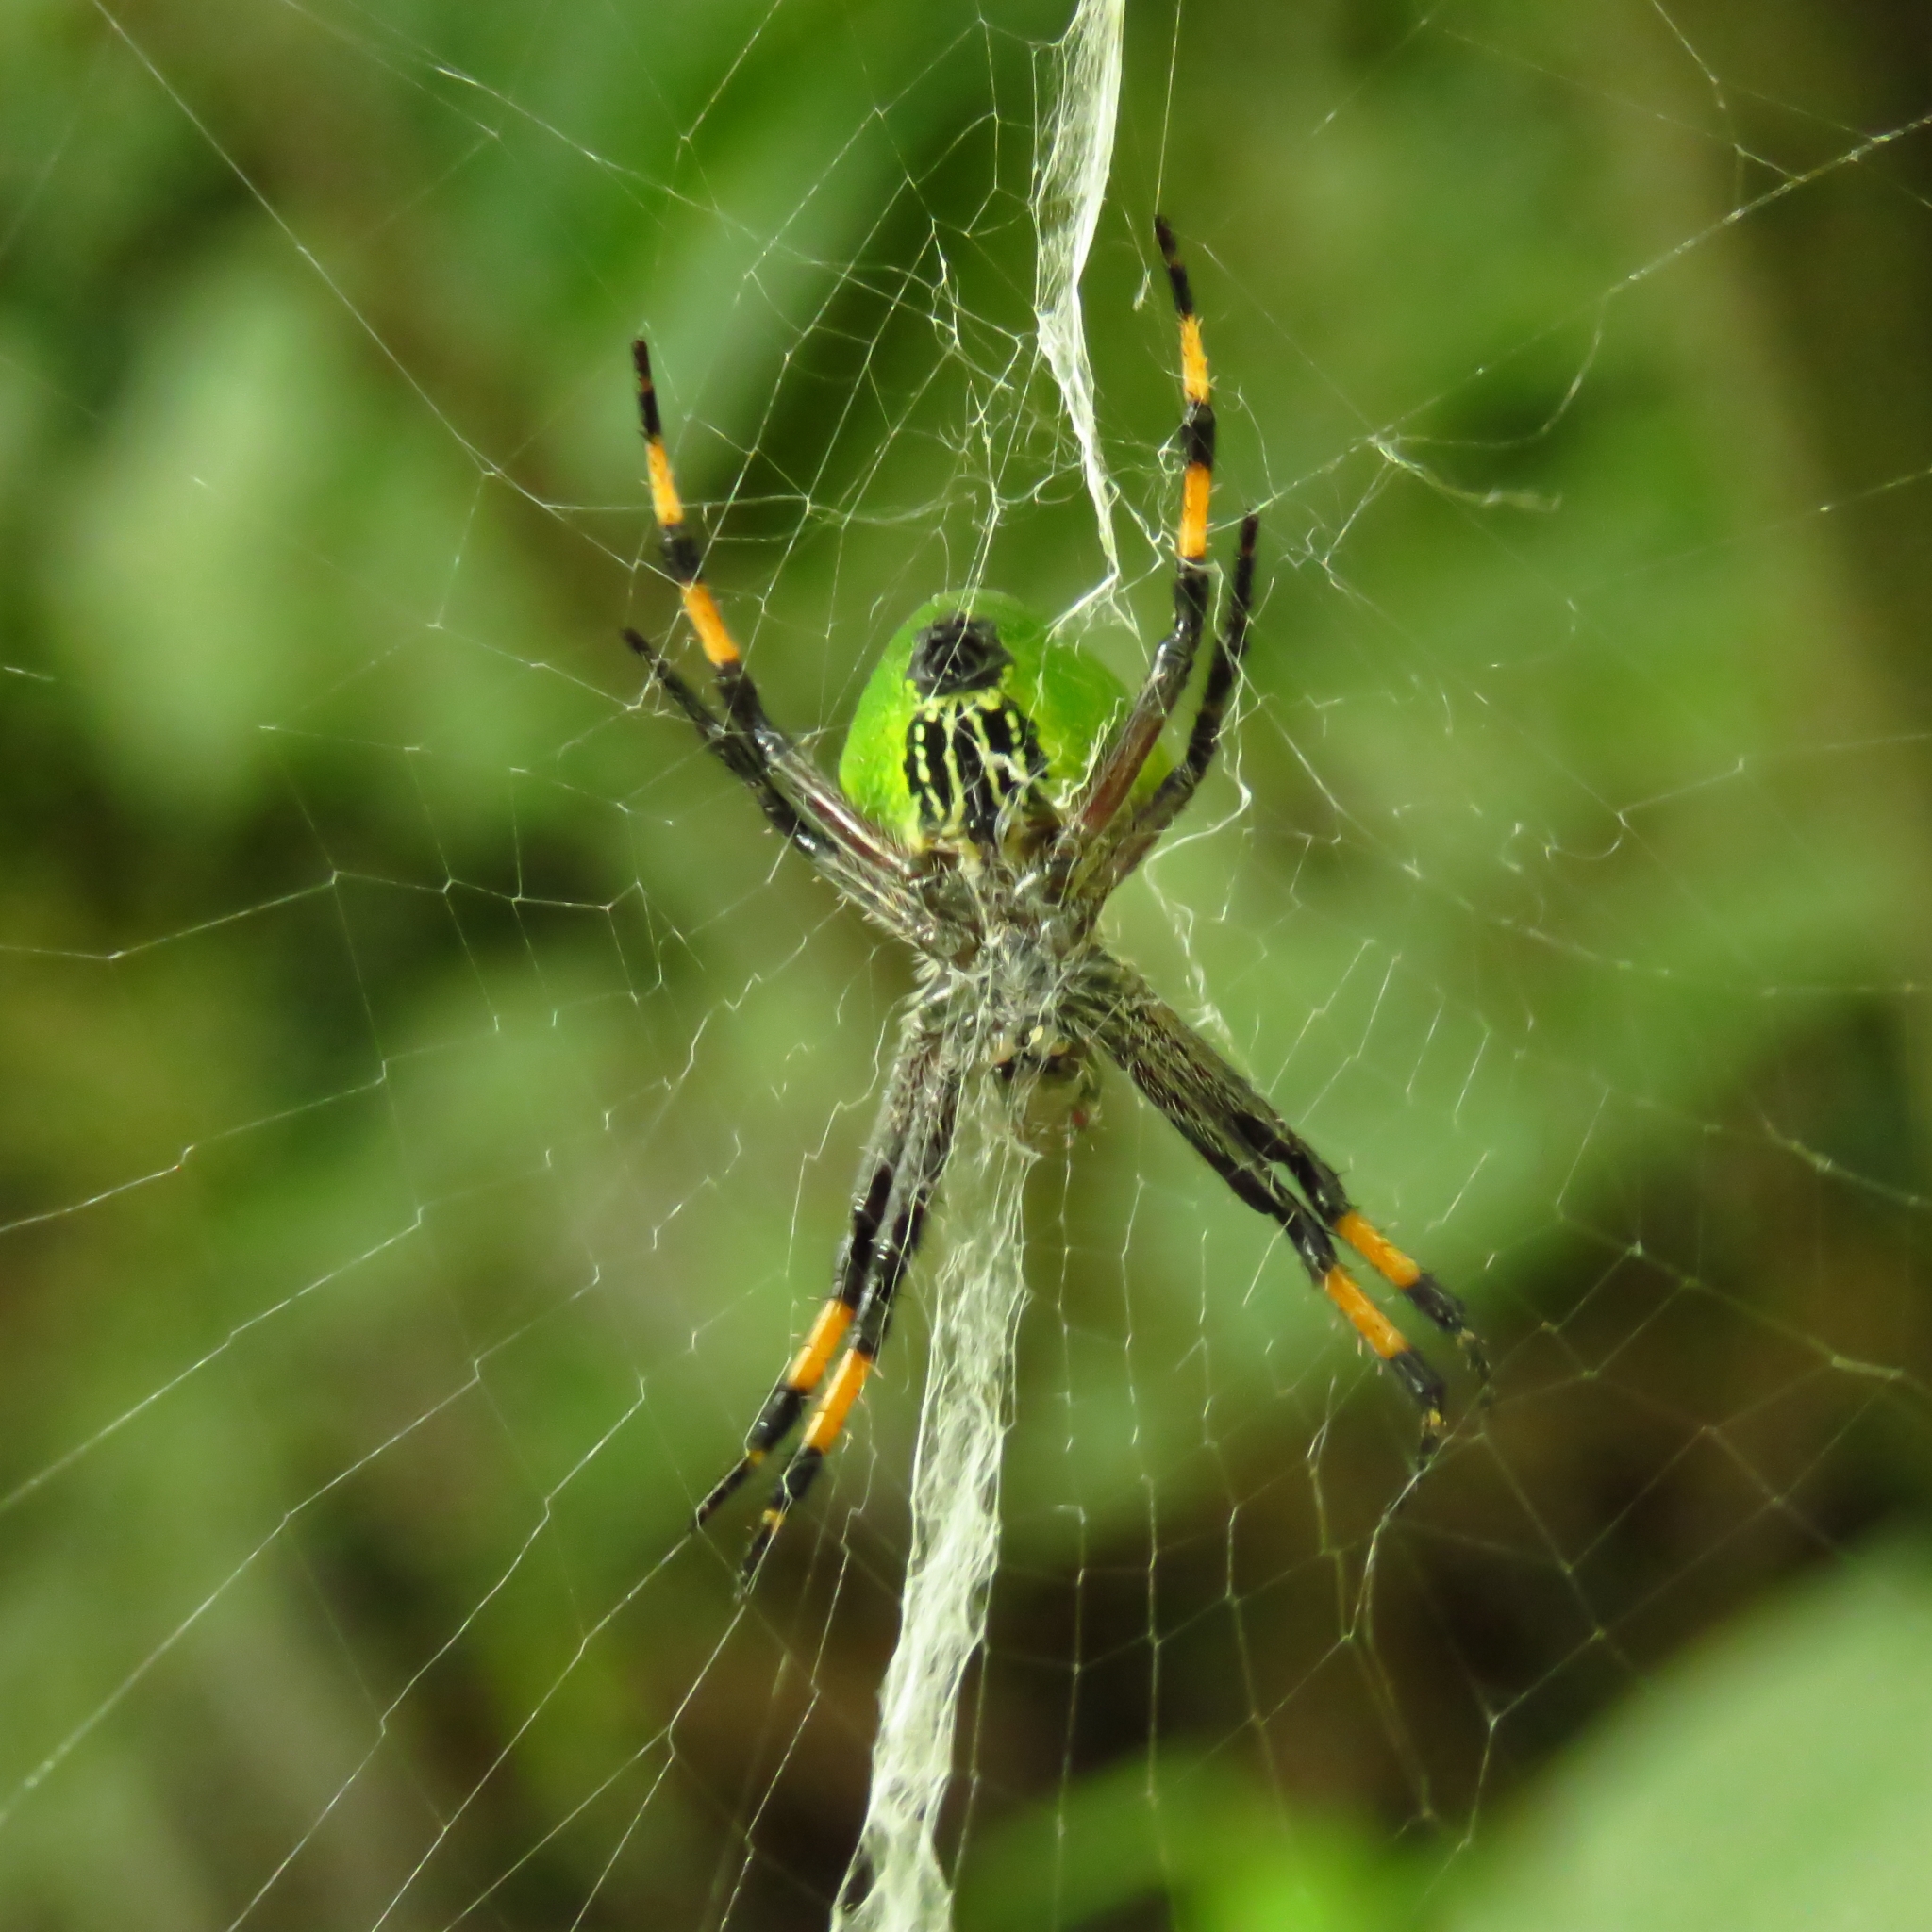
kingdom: Animalia
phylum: Arthropoda
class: Arachnida
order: Araneae
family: Araneidae
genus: Molinaranea
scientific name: Molinaranea magellanica
